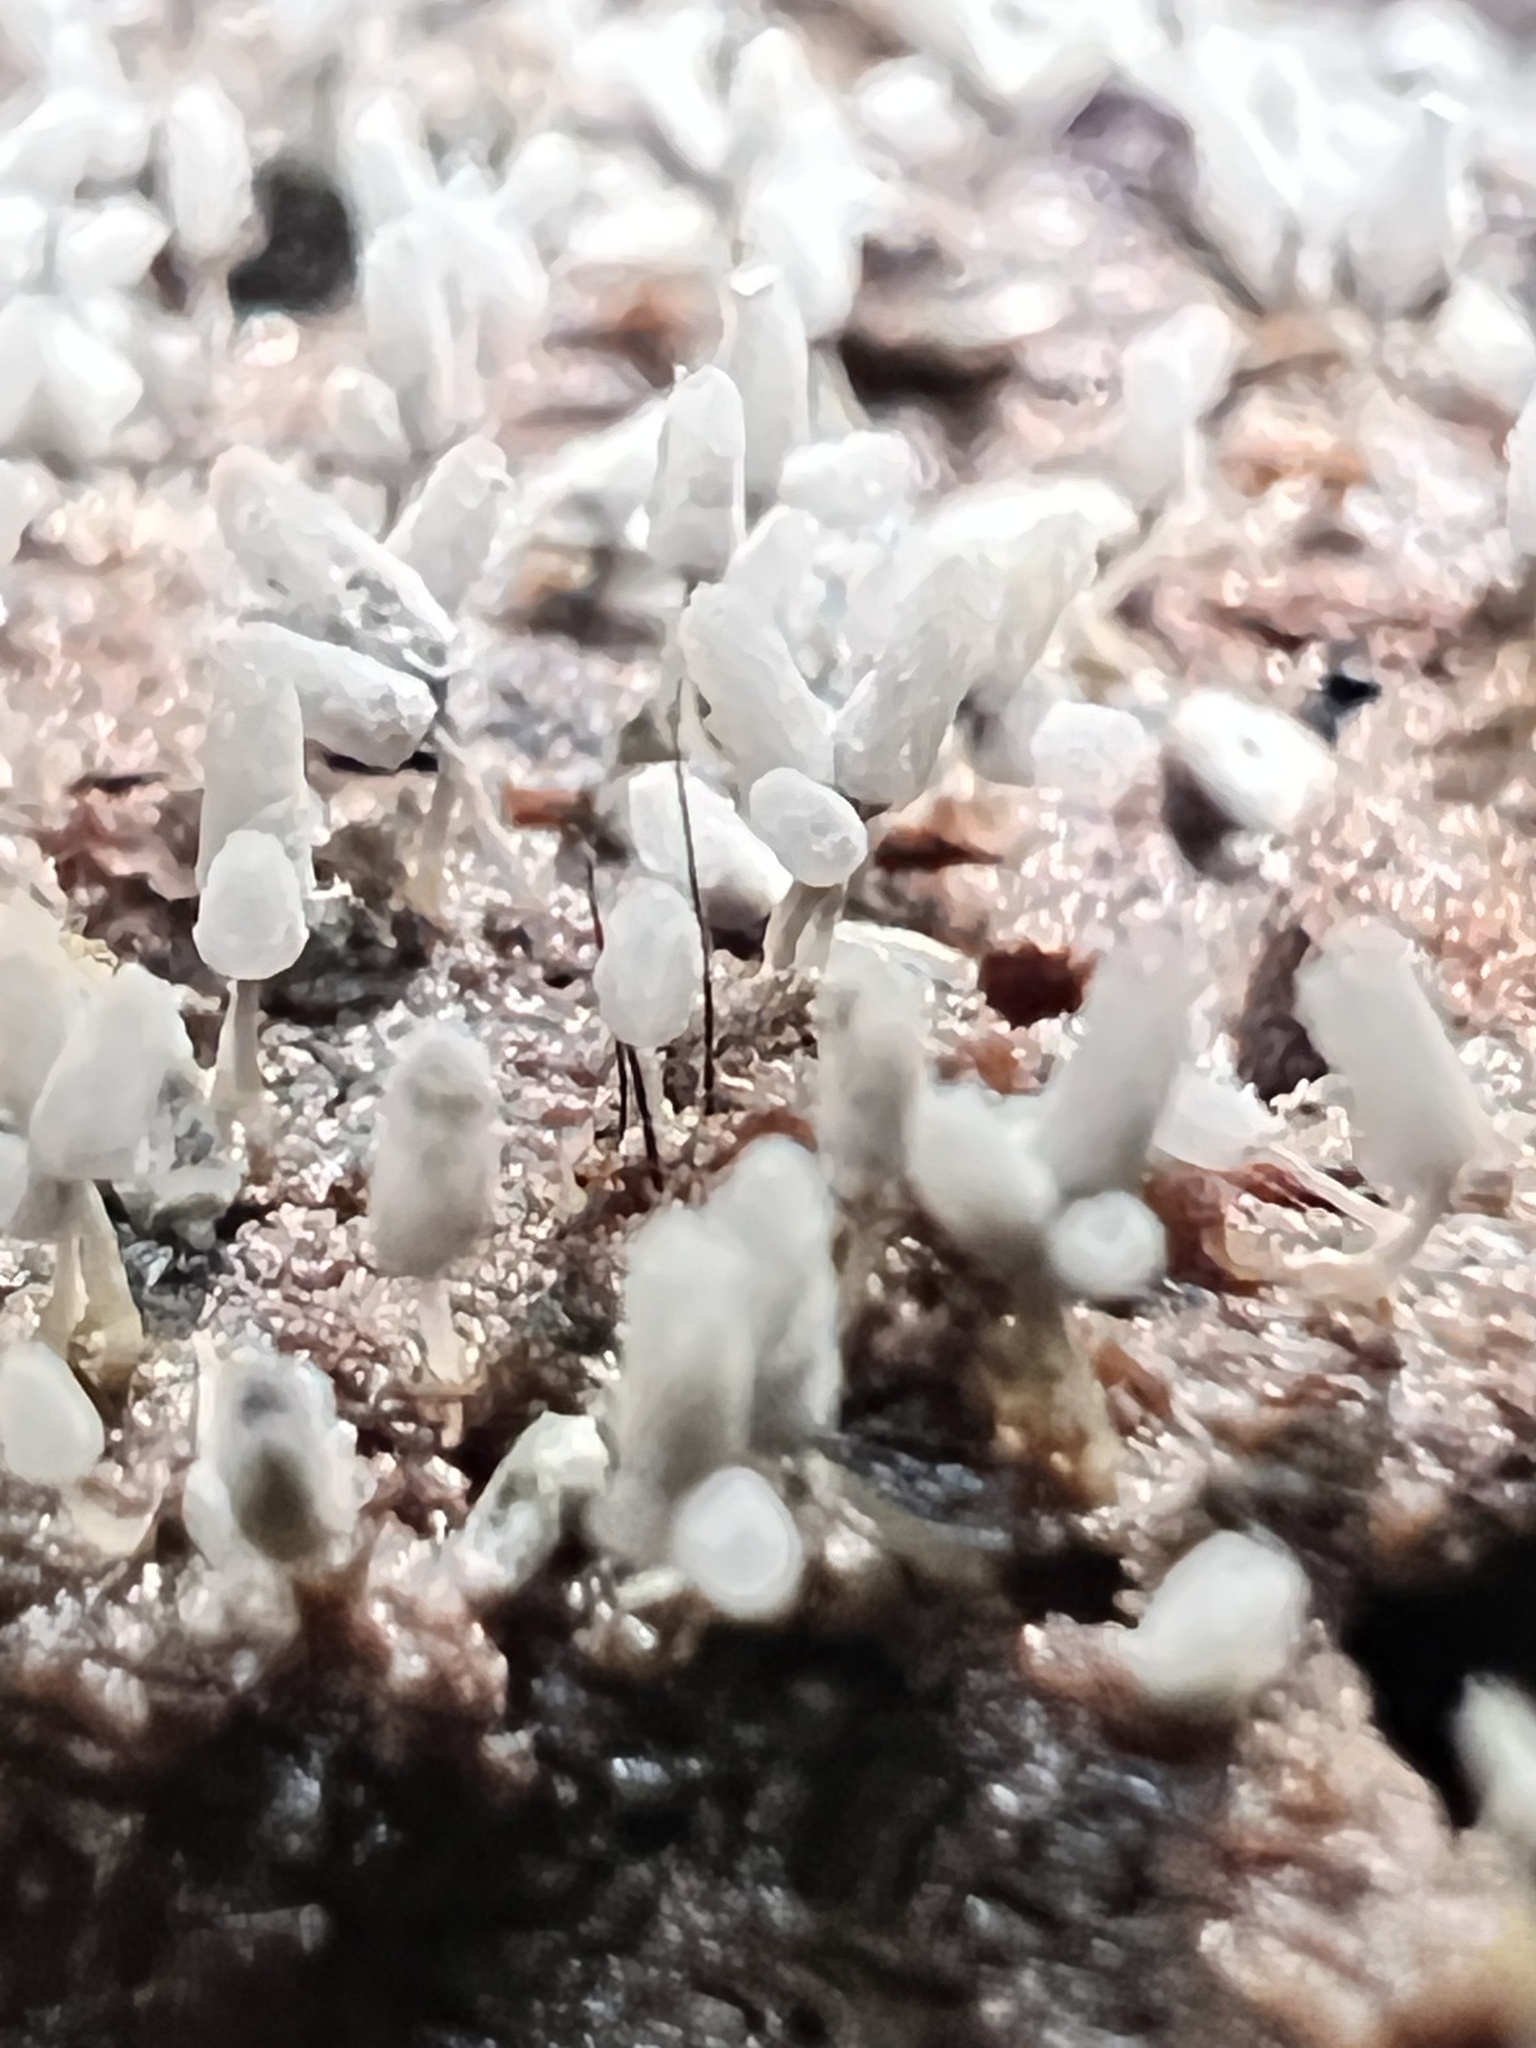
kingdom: Protozoa
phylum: Mycetozoa
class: Myxomycetes
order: Trichiales
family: Arcyriaceae
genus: Arcyria
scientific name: Arcyria cinerea
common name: White carnival candy slime mold
